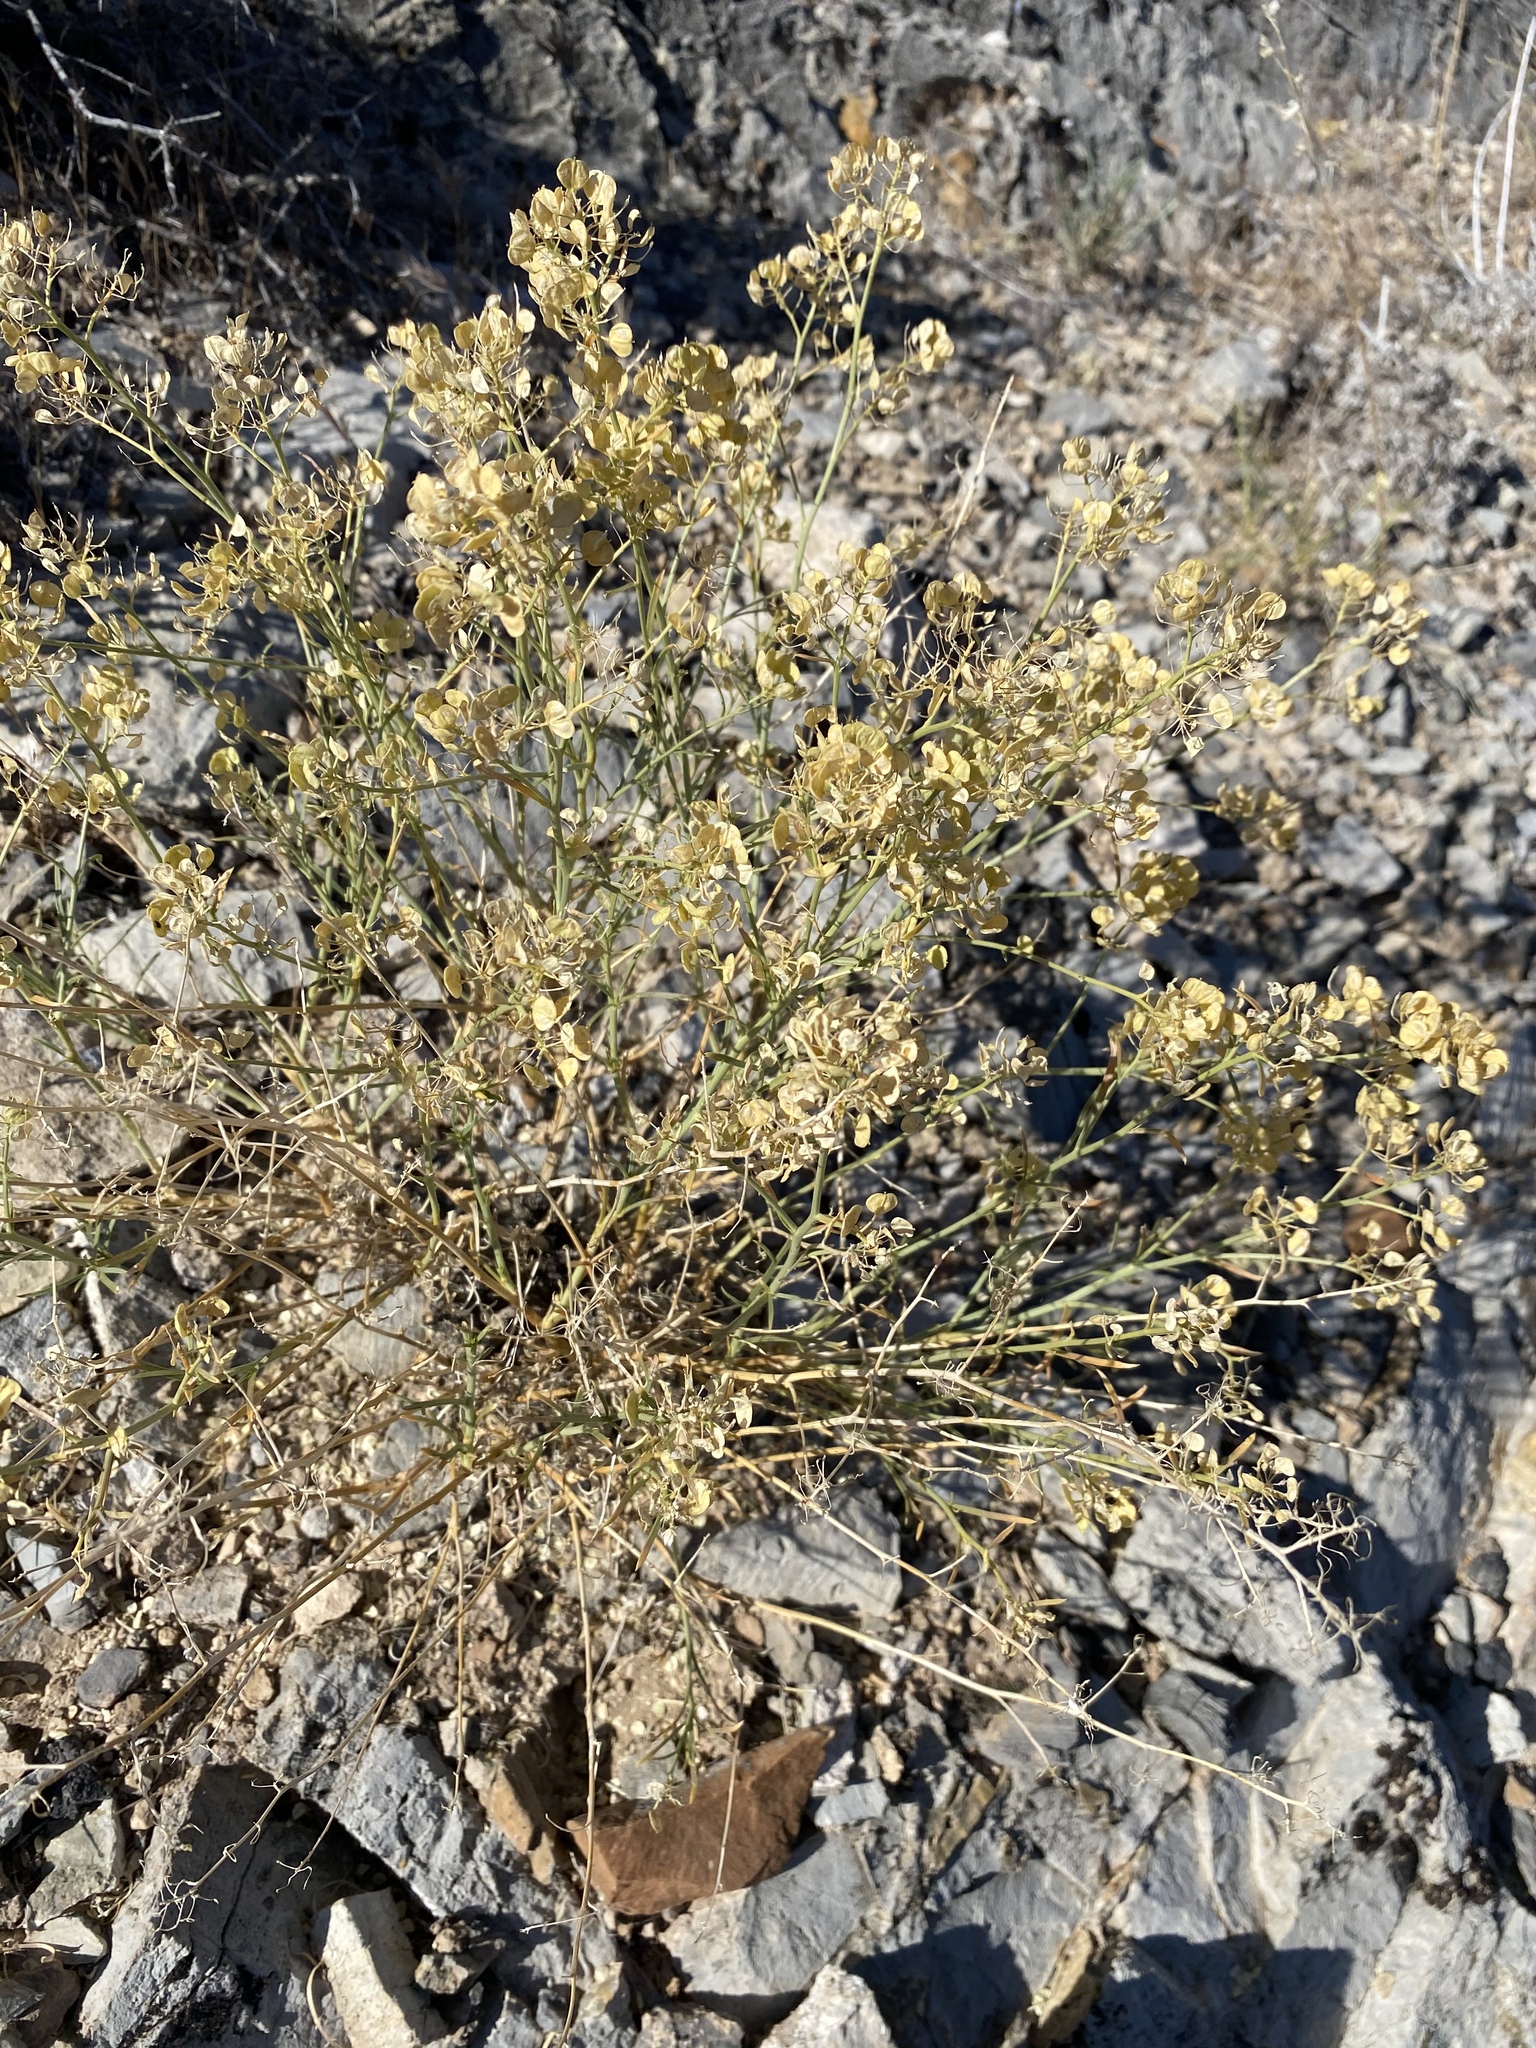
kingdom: Plantae
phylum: Tracheophyta
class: Magnoliopsida
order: Brassicales
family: Brassicaceae
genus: Lepidium
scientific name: Lepidium fremontii
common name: Fremont's pepperwort
